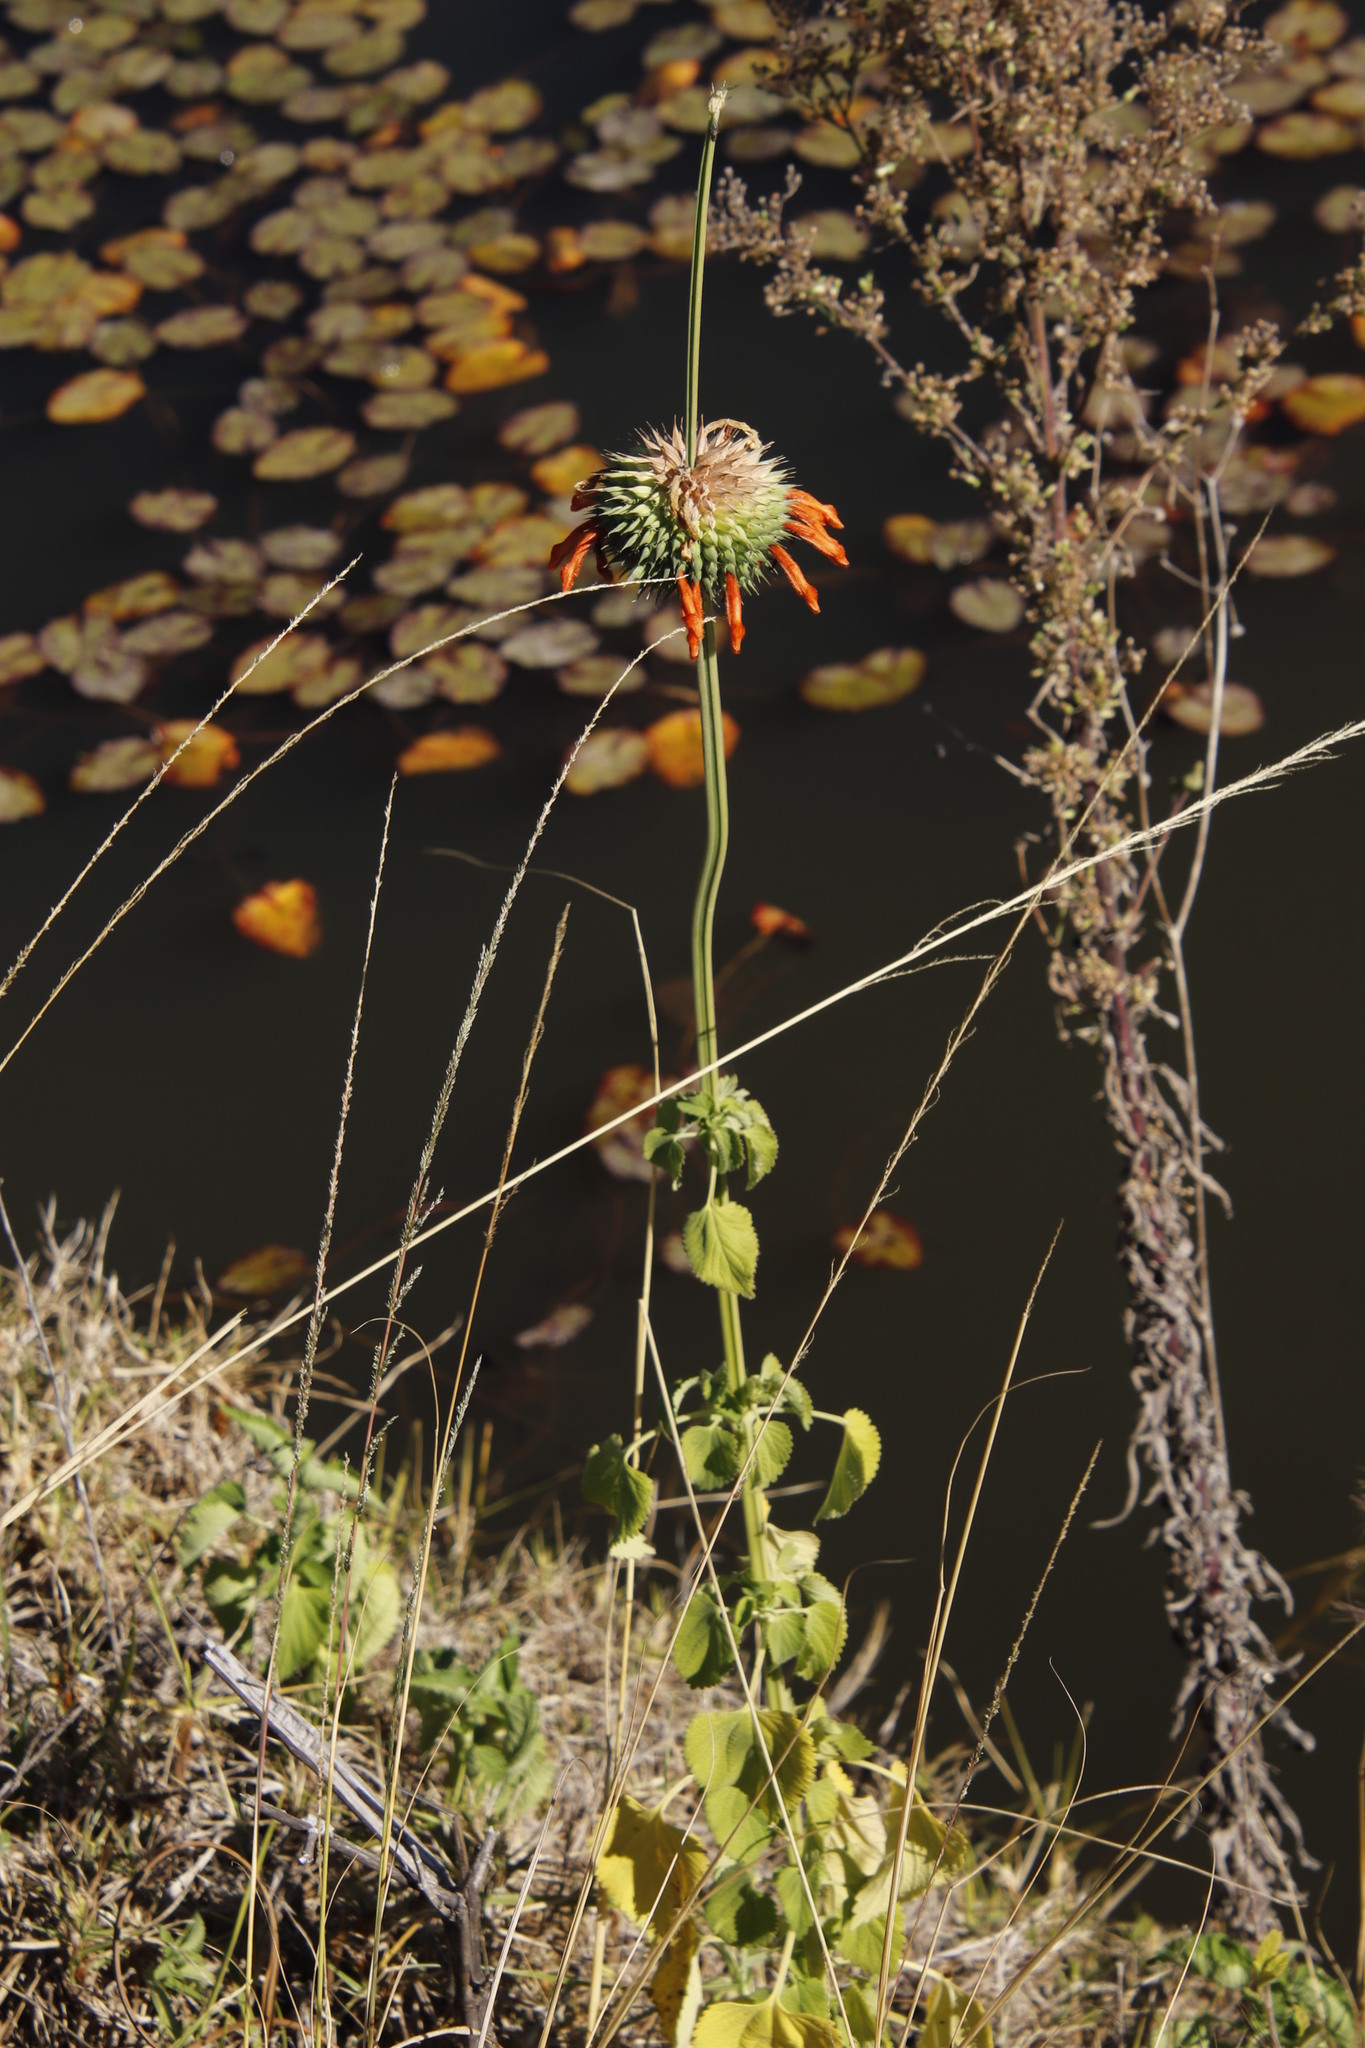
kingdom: Plantae
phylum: Tracheophyta
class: Magnoliopsida
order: Lamiales
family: Lamiaceae
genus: Leonotis
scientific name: Leonotis nepetifolia
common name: Christmas candlestick
